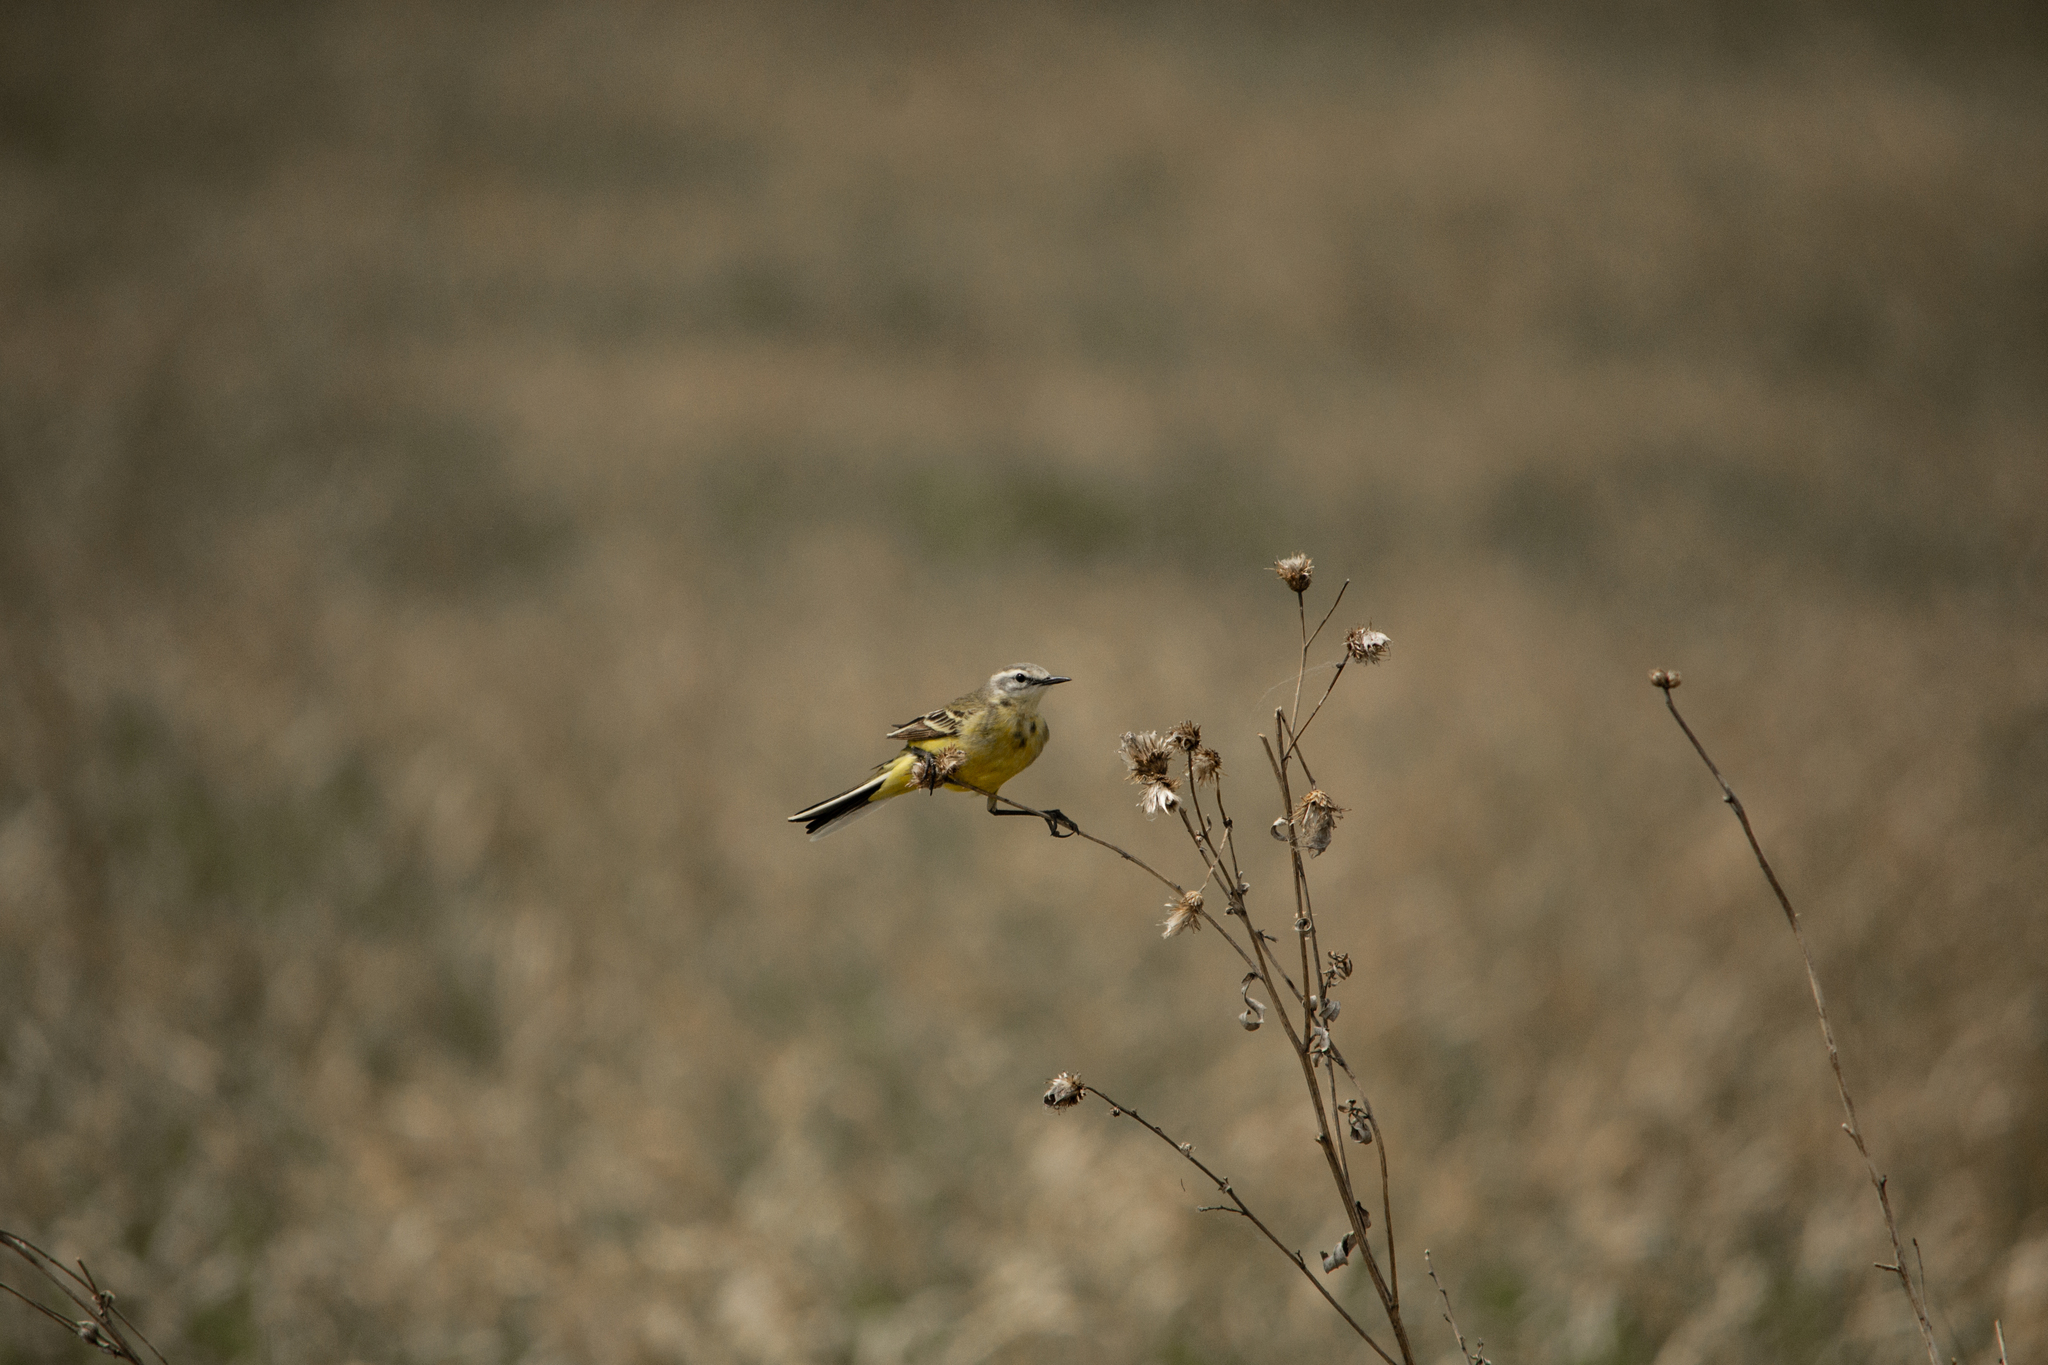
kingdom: Animalia
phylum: Chordata
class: Aves
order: Passeriformes
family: Motacillidae
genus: Motacilla
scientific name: Motacilla flava
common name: Western yellow wagtail
